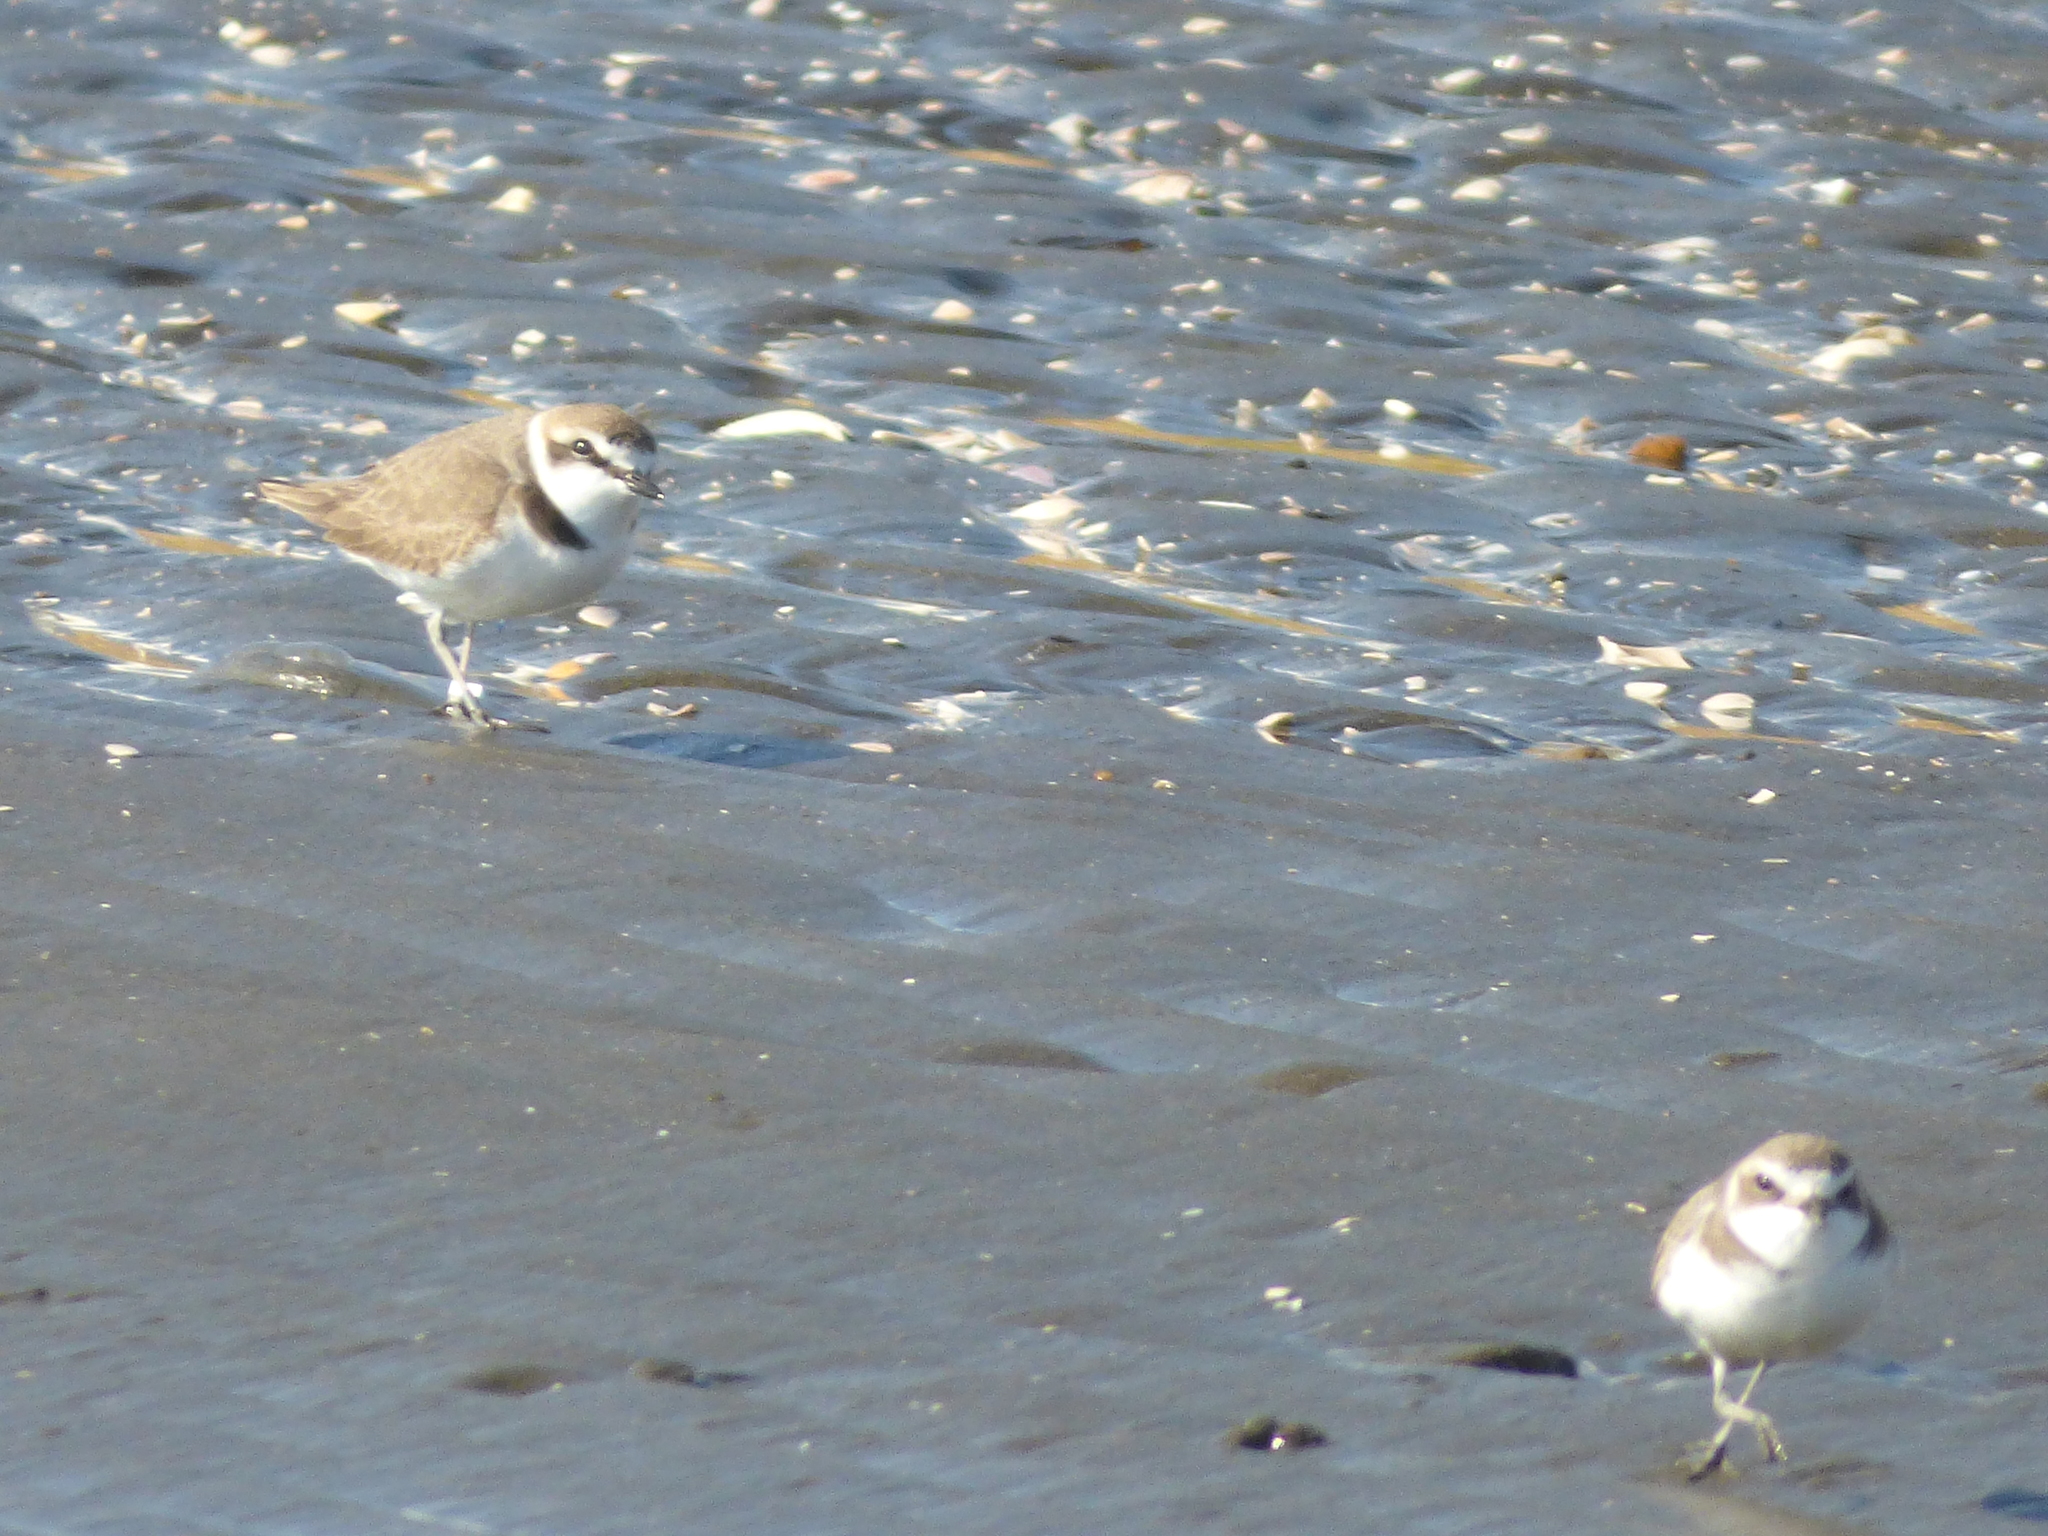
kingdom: Animalia
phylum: Chordata
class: Aves
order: Charadriiformes
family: Charadriidae
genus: Charadrius
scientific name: Charadrius alexandrinus
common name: Kentish plover
